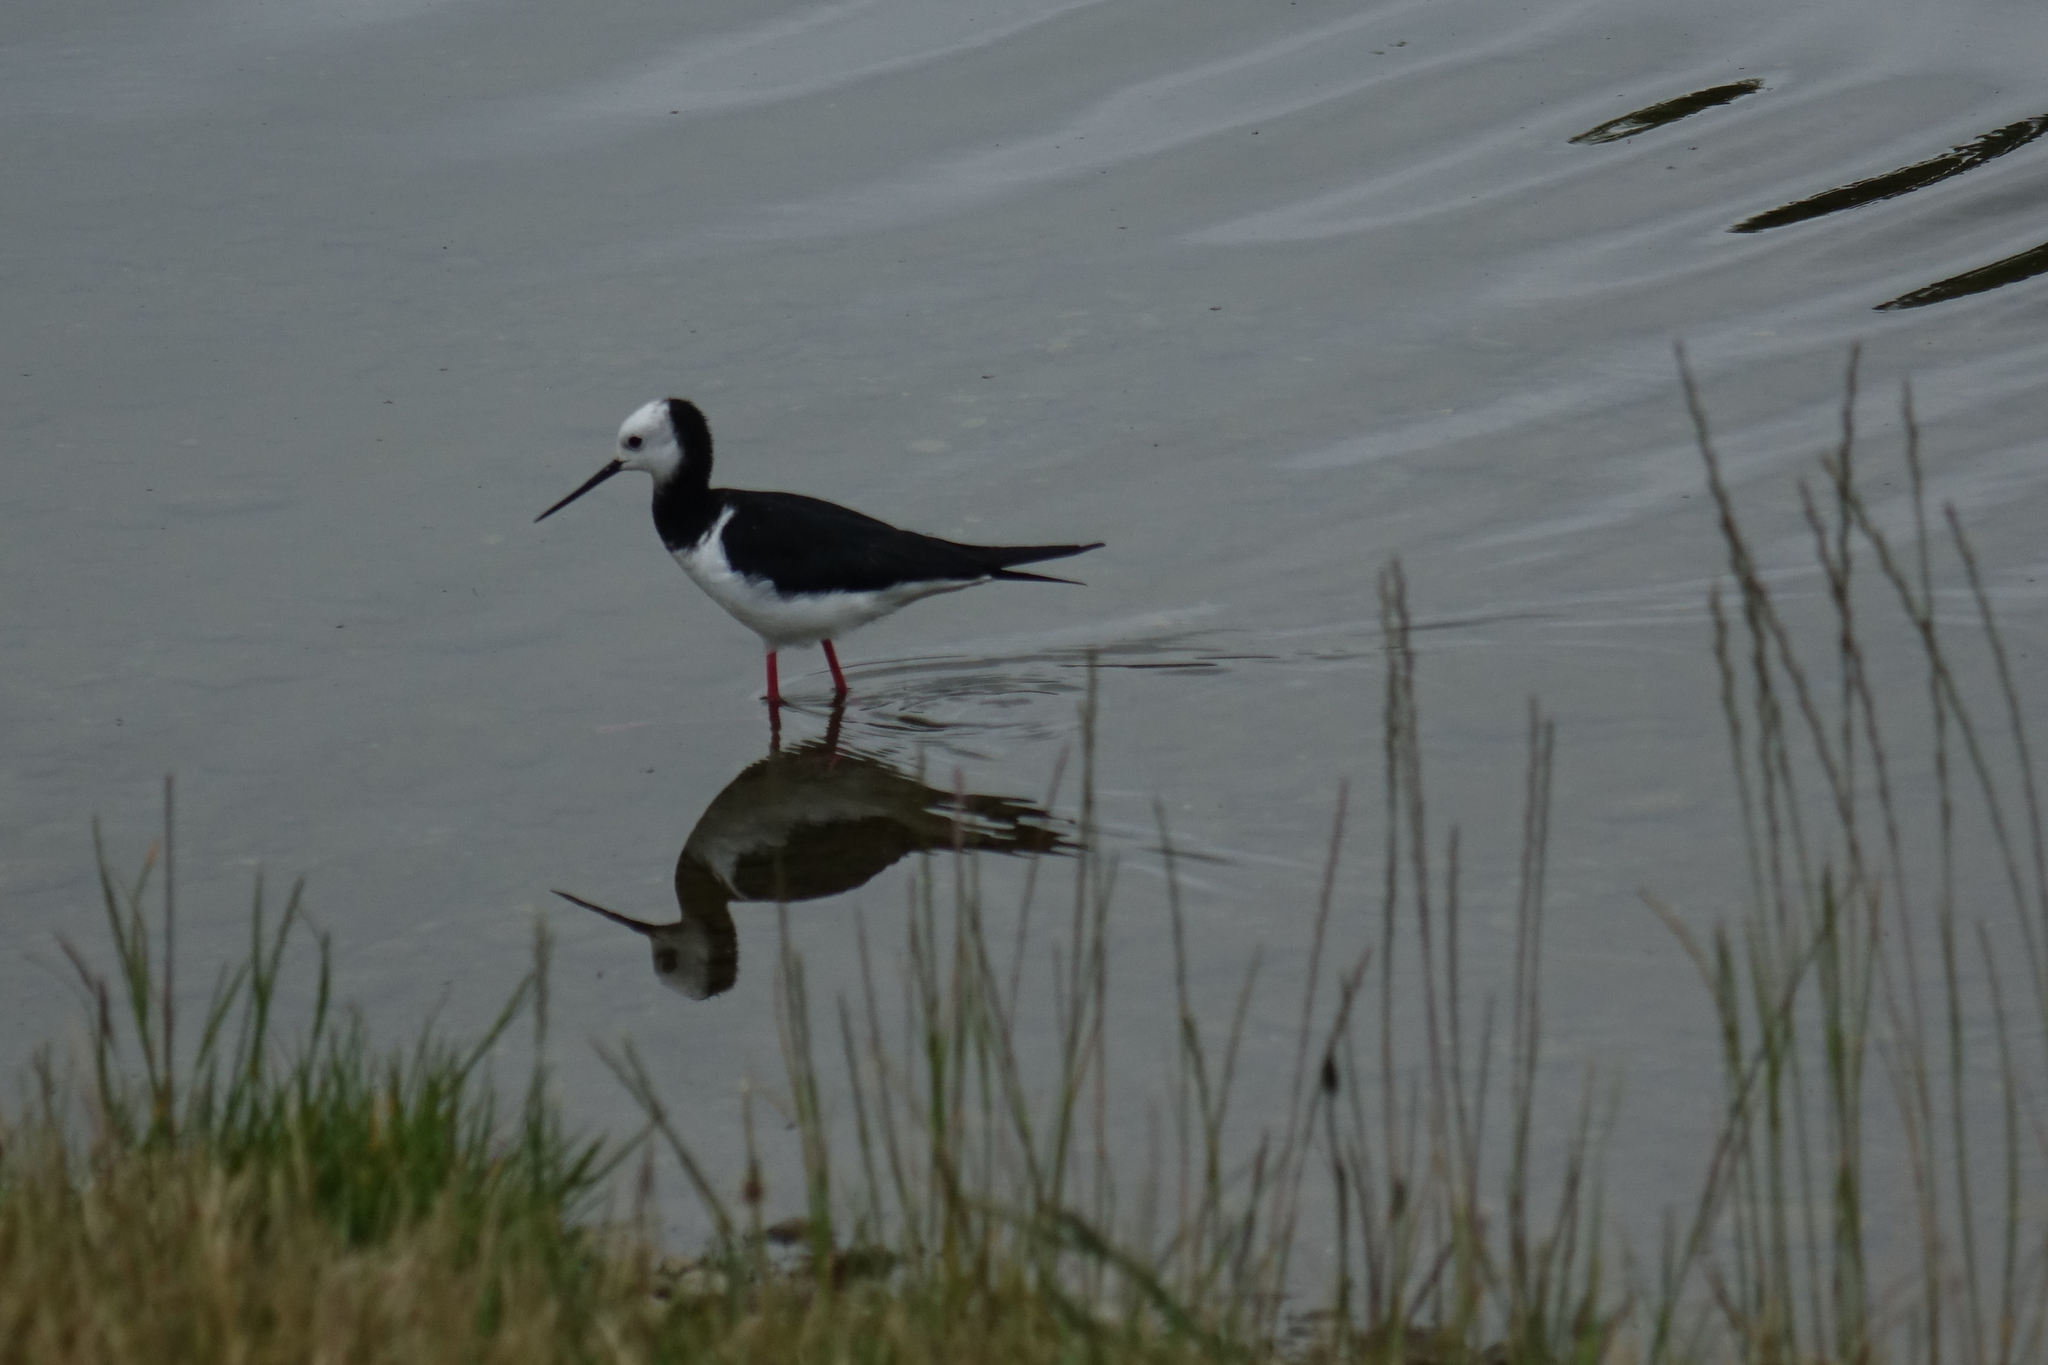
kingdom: Animalia
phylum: Chordata
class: Aves
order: Charadriiformes
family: Recurvirostridae
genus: Himantopus
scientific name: Himantopus leucocephalus
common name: White-headed stilt
